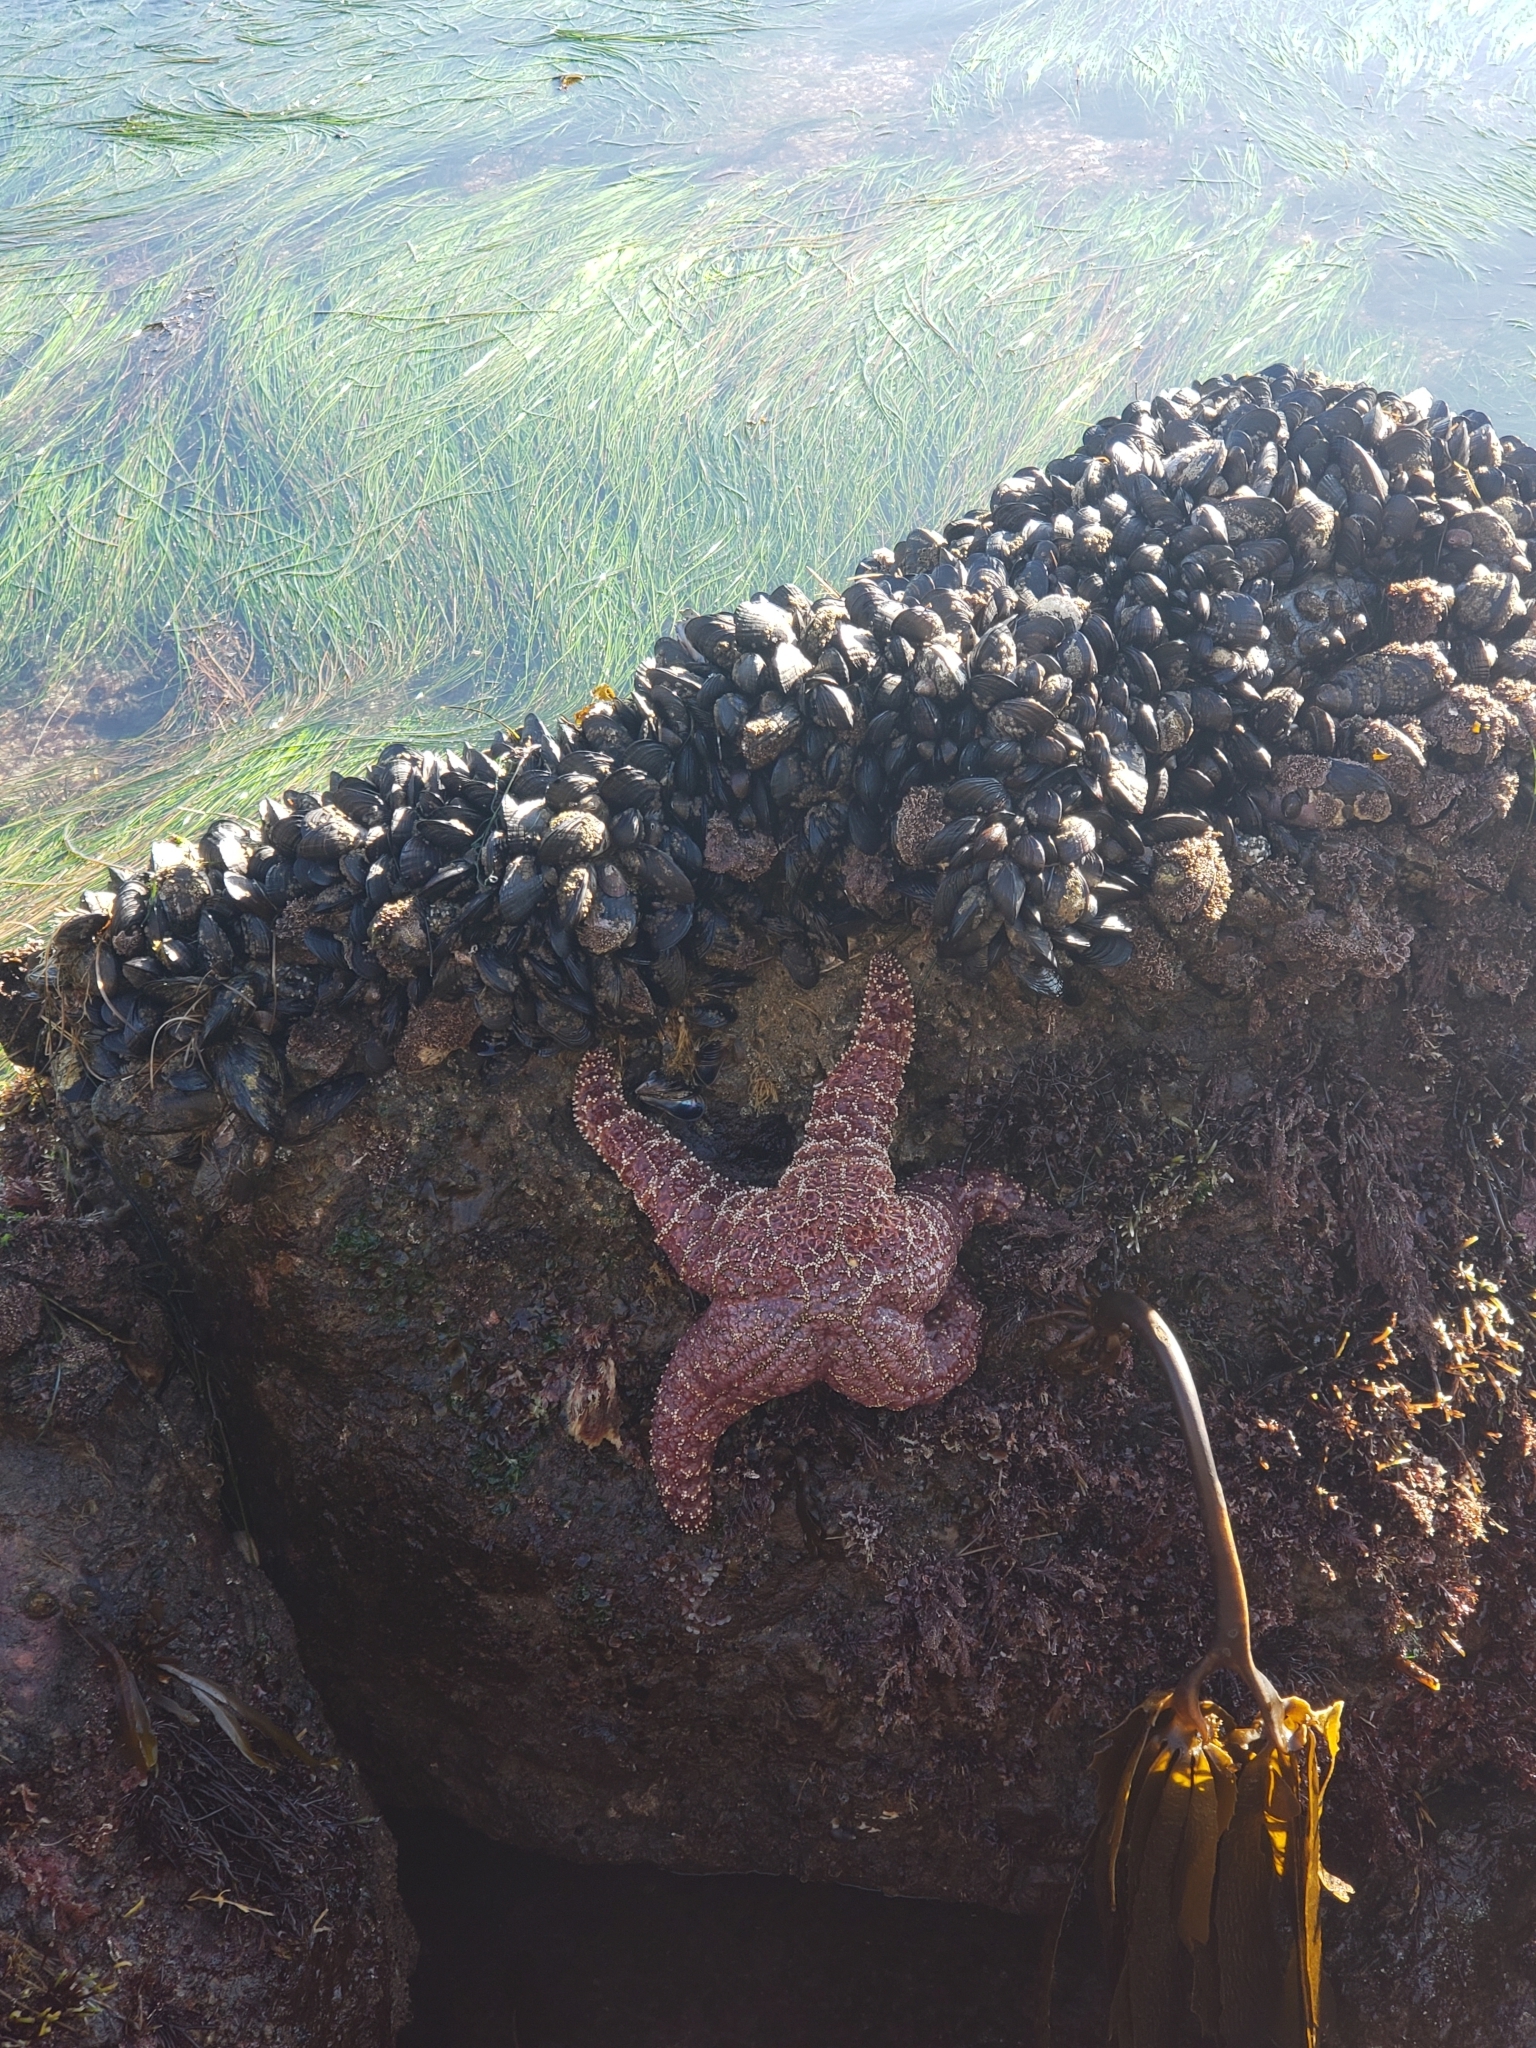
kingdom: Animalia
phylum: Echinodermata
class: Asteroidea
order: Forcipulatida
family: Asteriidae
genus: Pisaster
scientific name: Pisaster ochraceus
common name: Ochre stars
